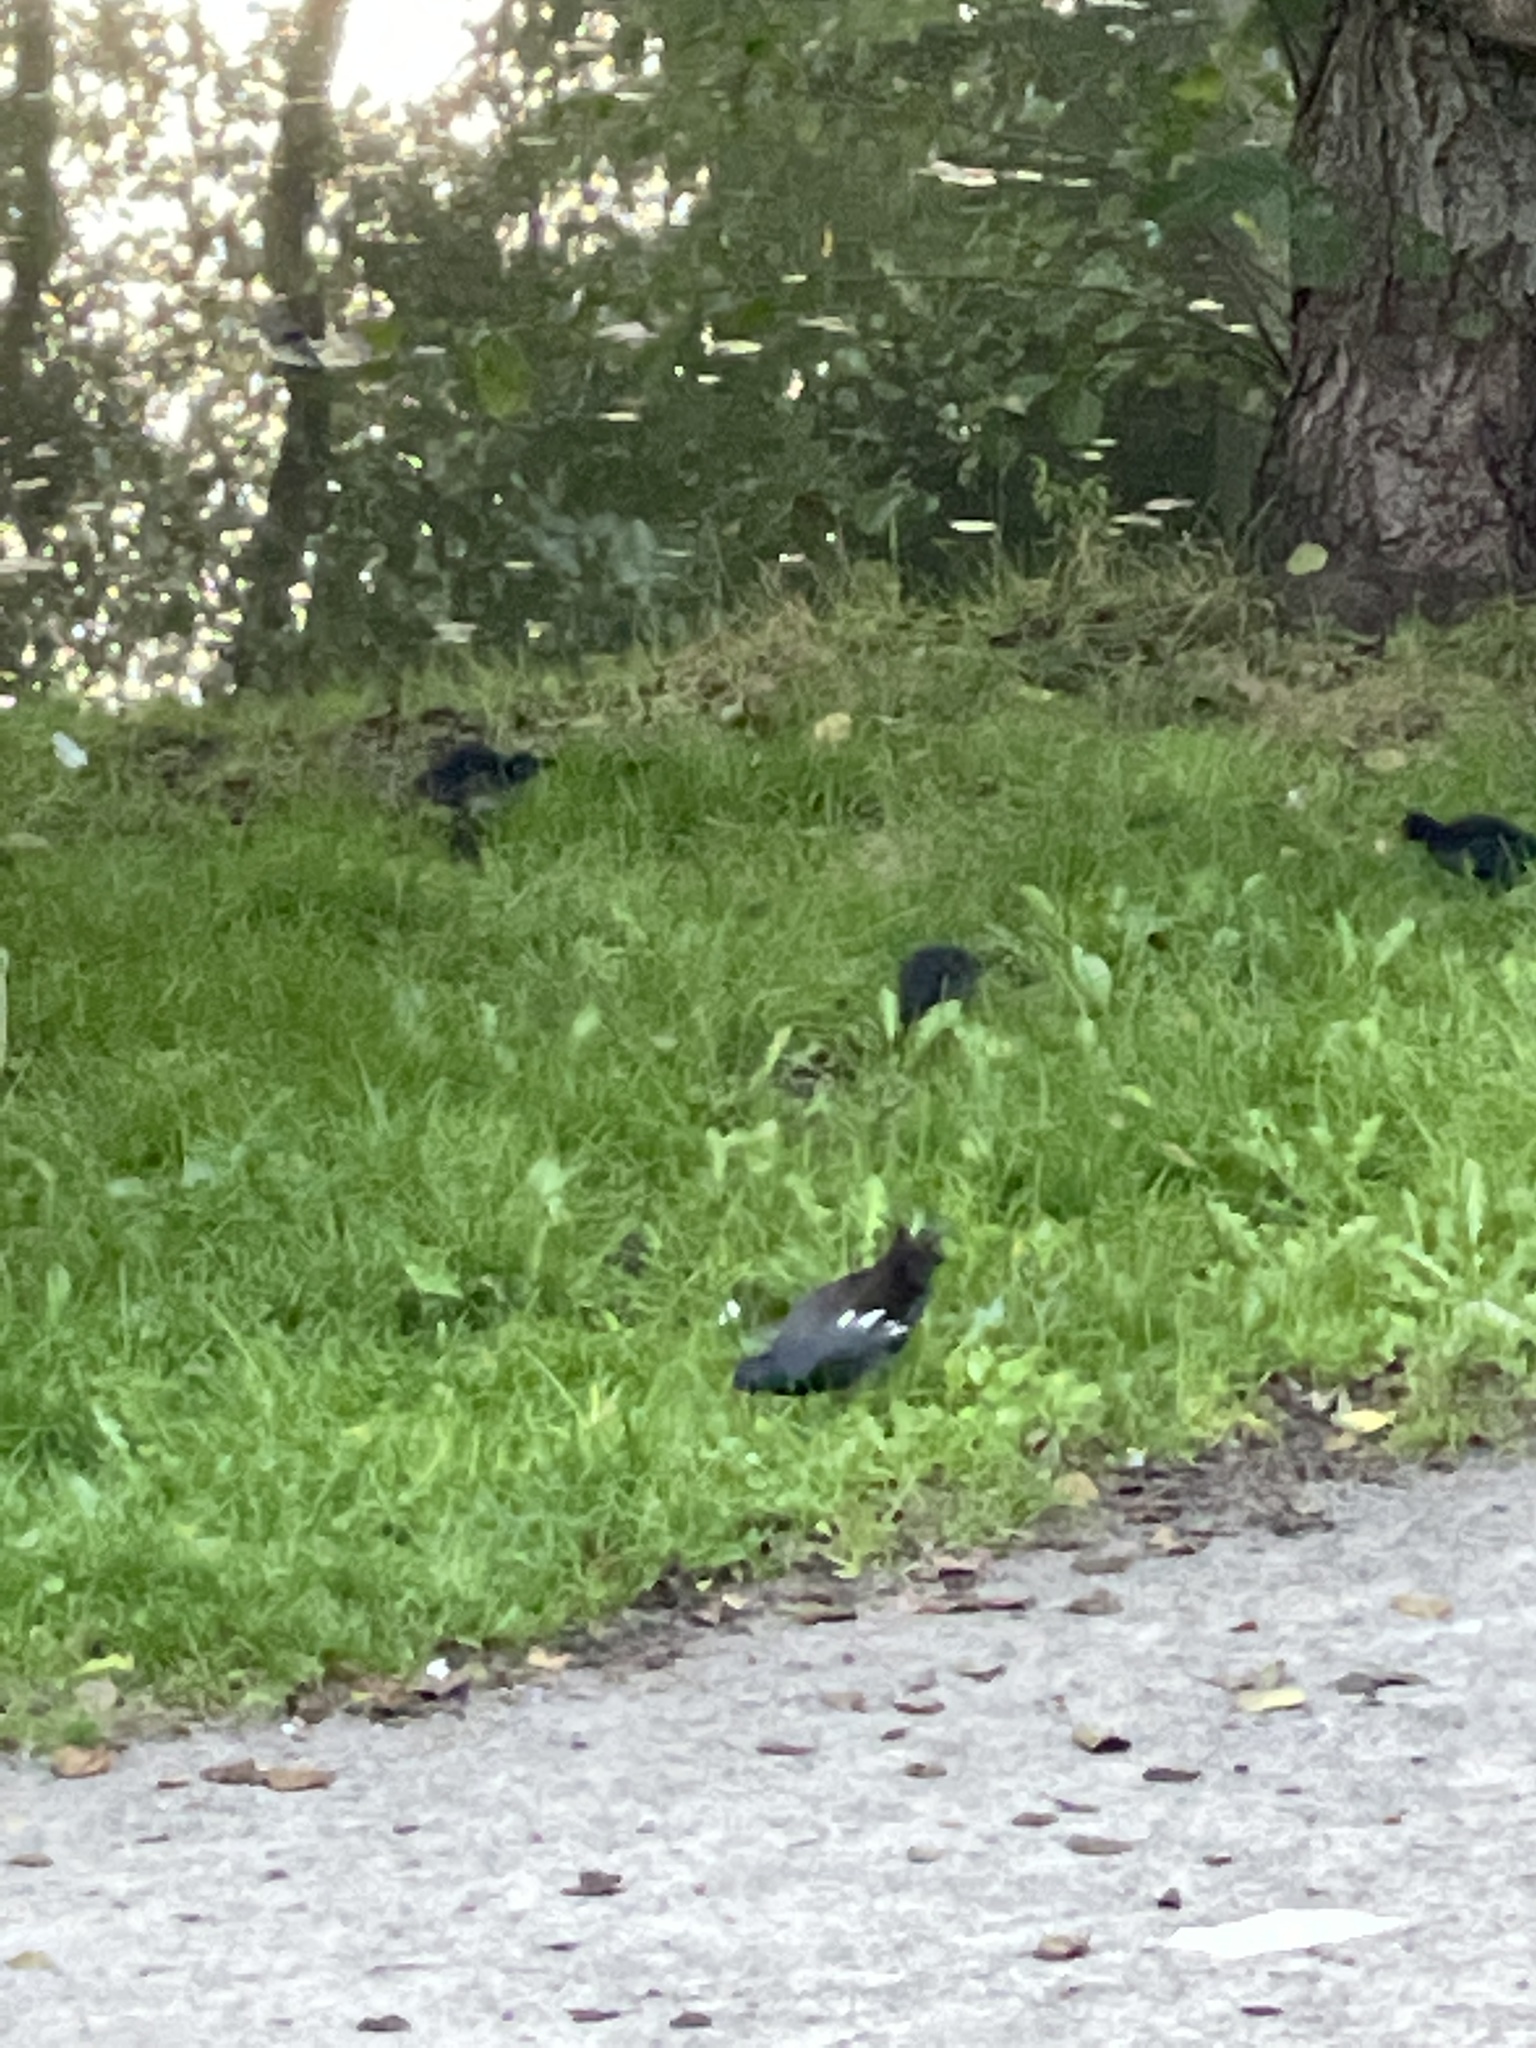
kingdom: Animalia
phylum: Chordata
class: Aves
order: Gruiformes
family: Rallidae
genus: Gallinula
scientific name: Gallinula chloropus
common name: Common moorhen
